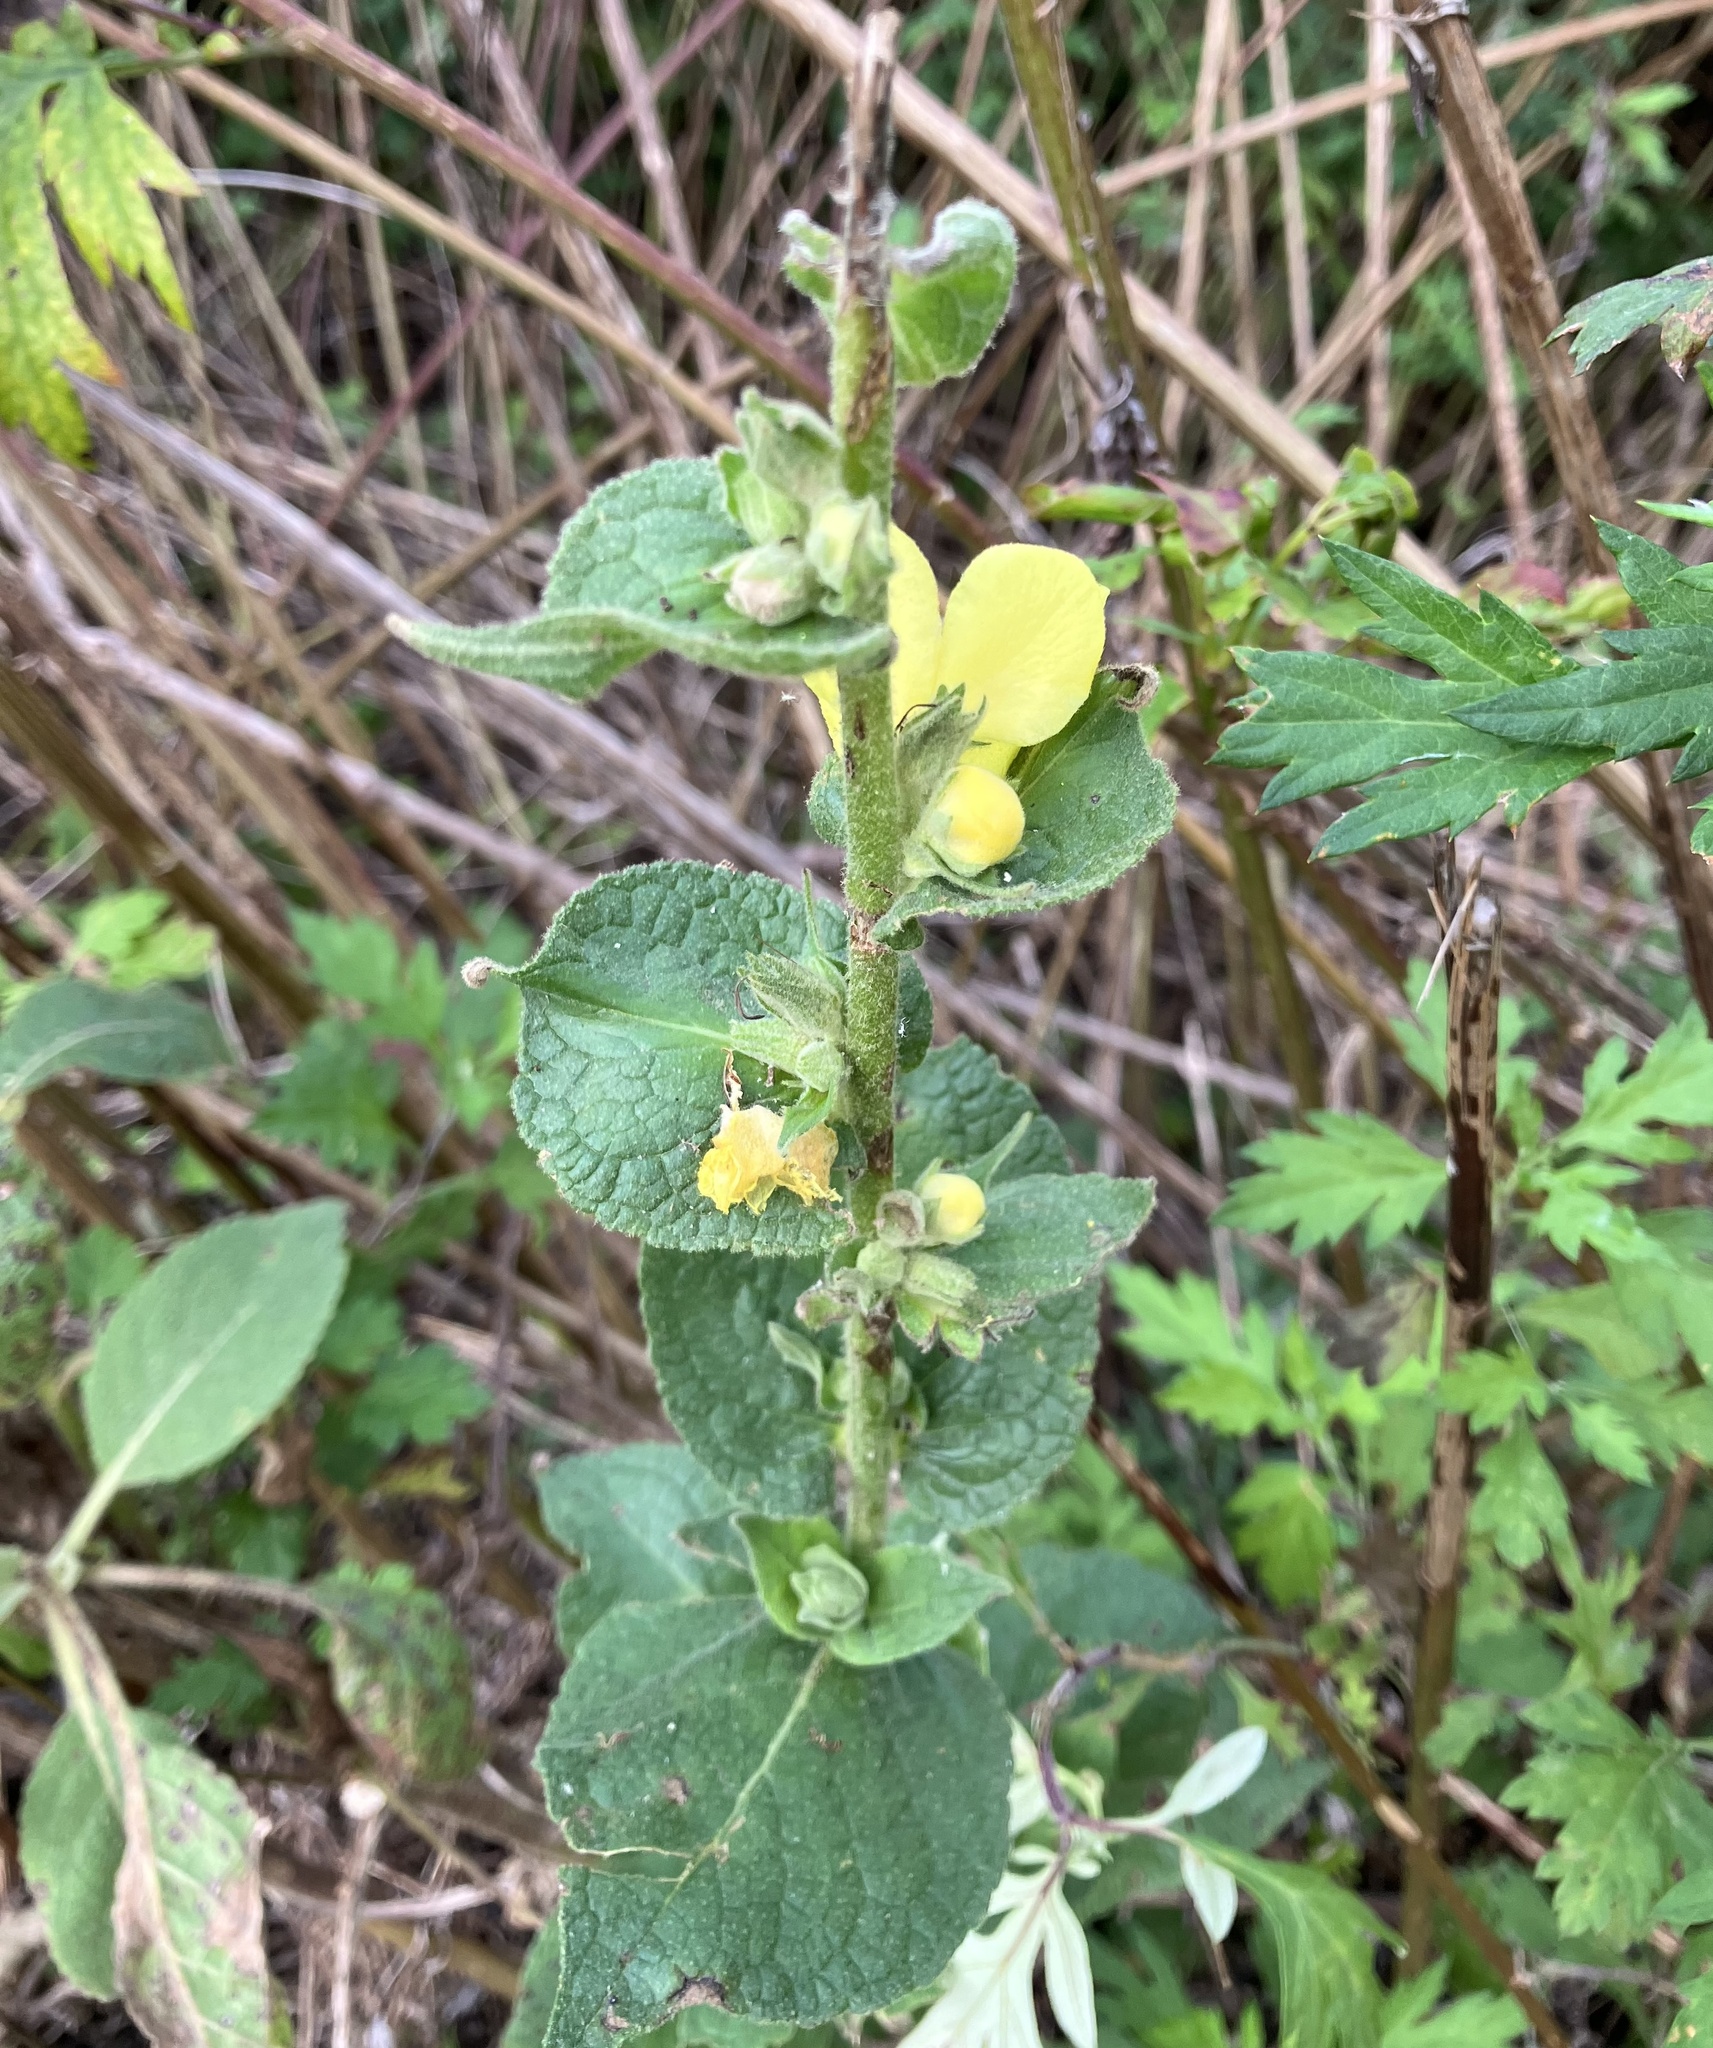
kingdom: Plantae
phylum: Tracheophyta
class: Magnoliopsida
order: Lamiales
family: Scrophulariaceae
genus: Verbascum
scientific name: Verbascum phlomoides
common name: Orange mullein
